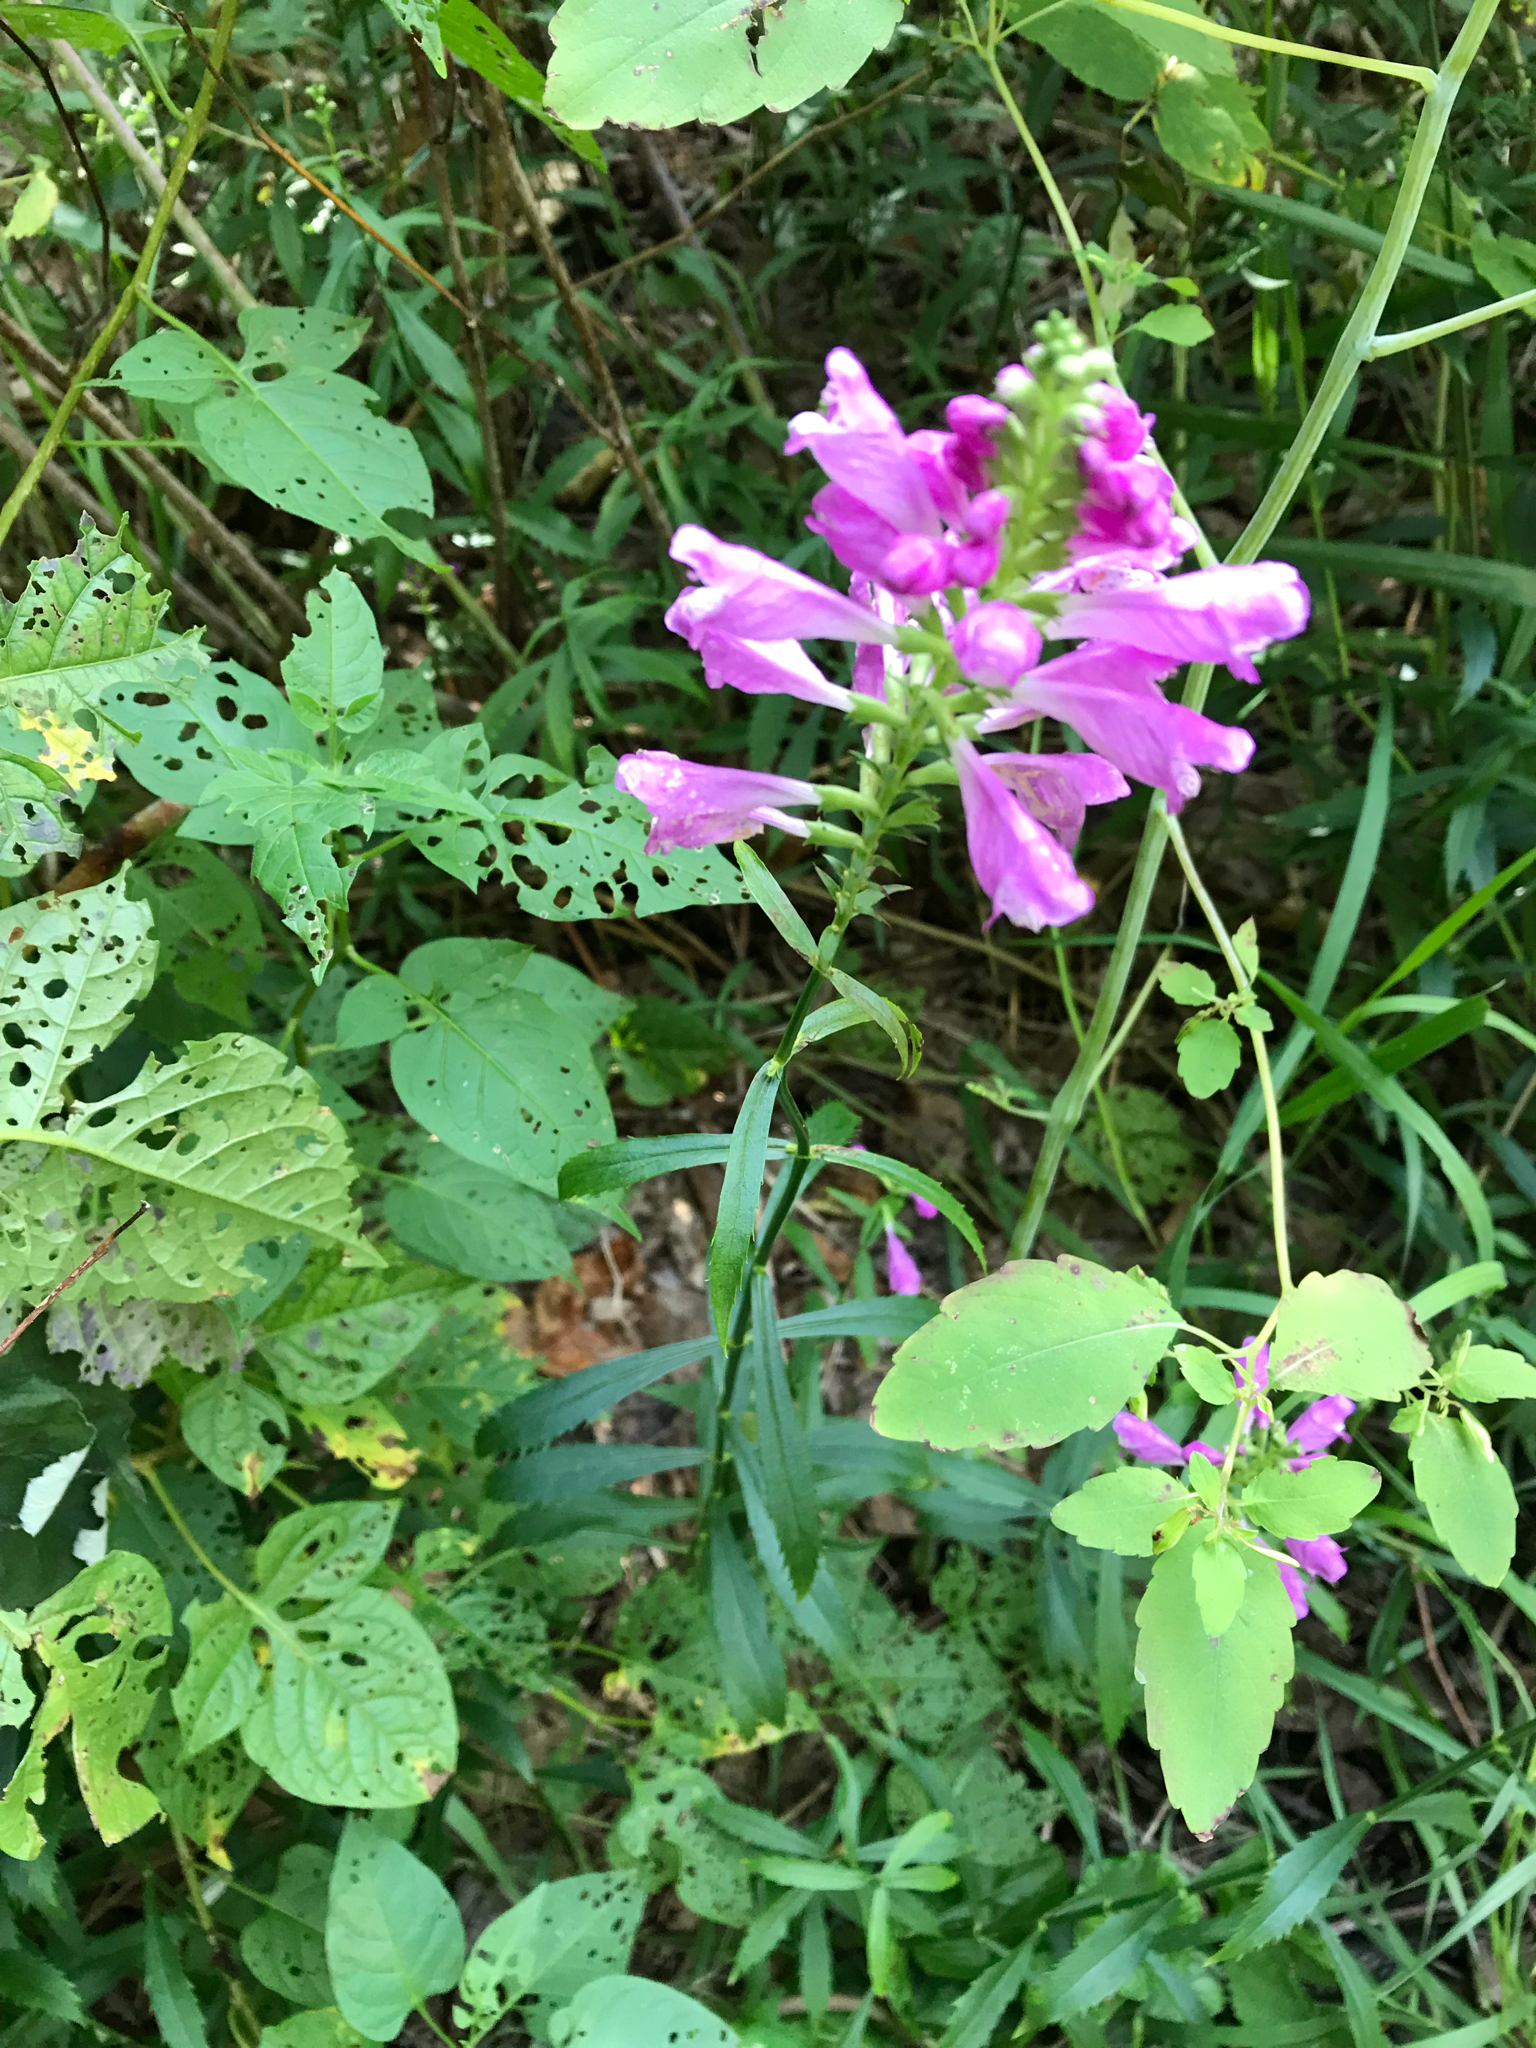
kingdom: Plantae
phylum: Tracheophyta
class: Magnoliopsida
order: Lamiales
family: Lamiaceae
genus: Physostegia
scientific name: Physostegia virginiana
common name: Obedient-plant
